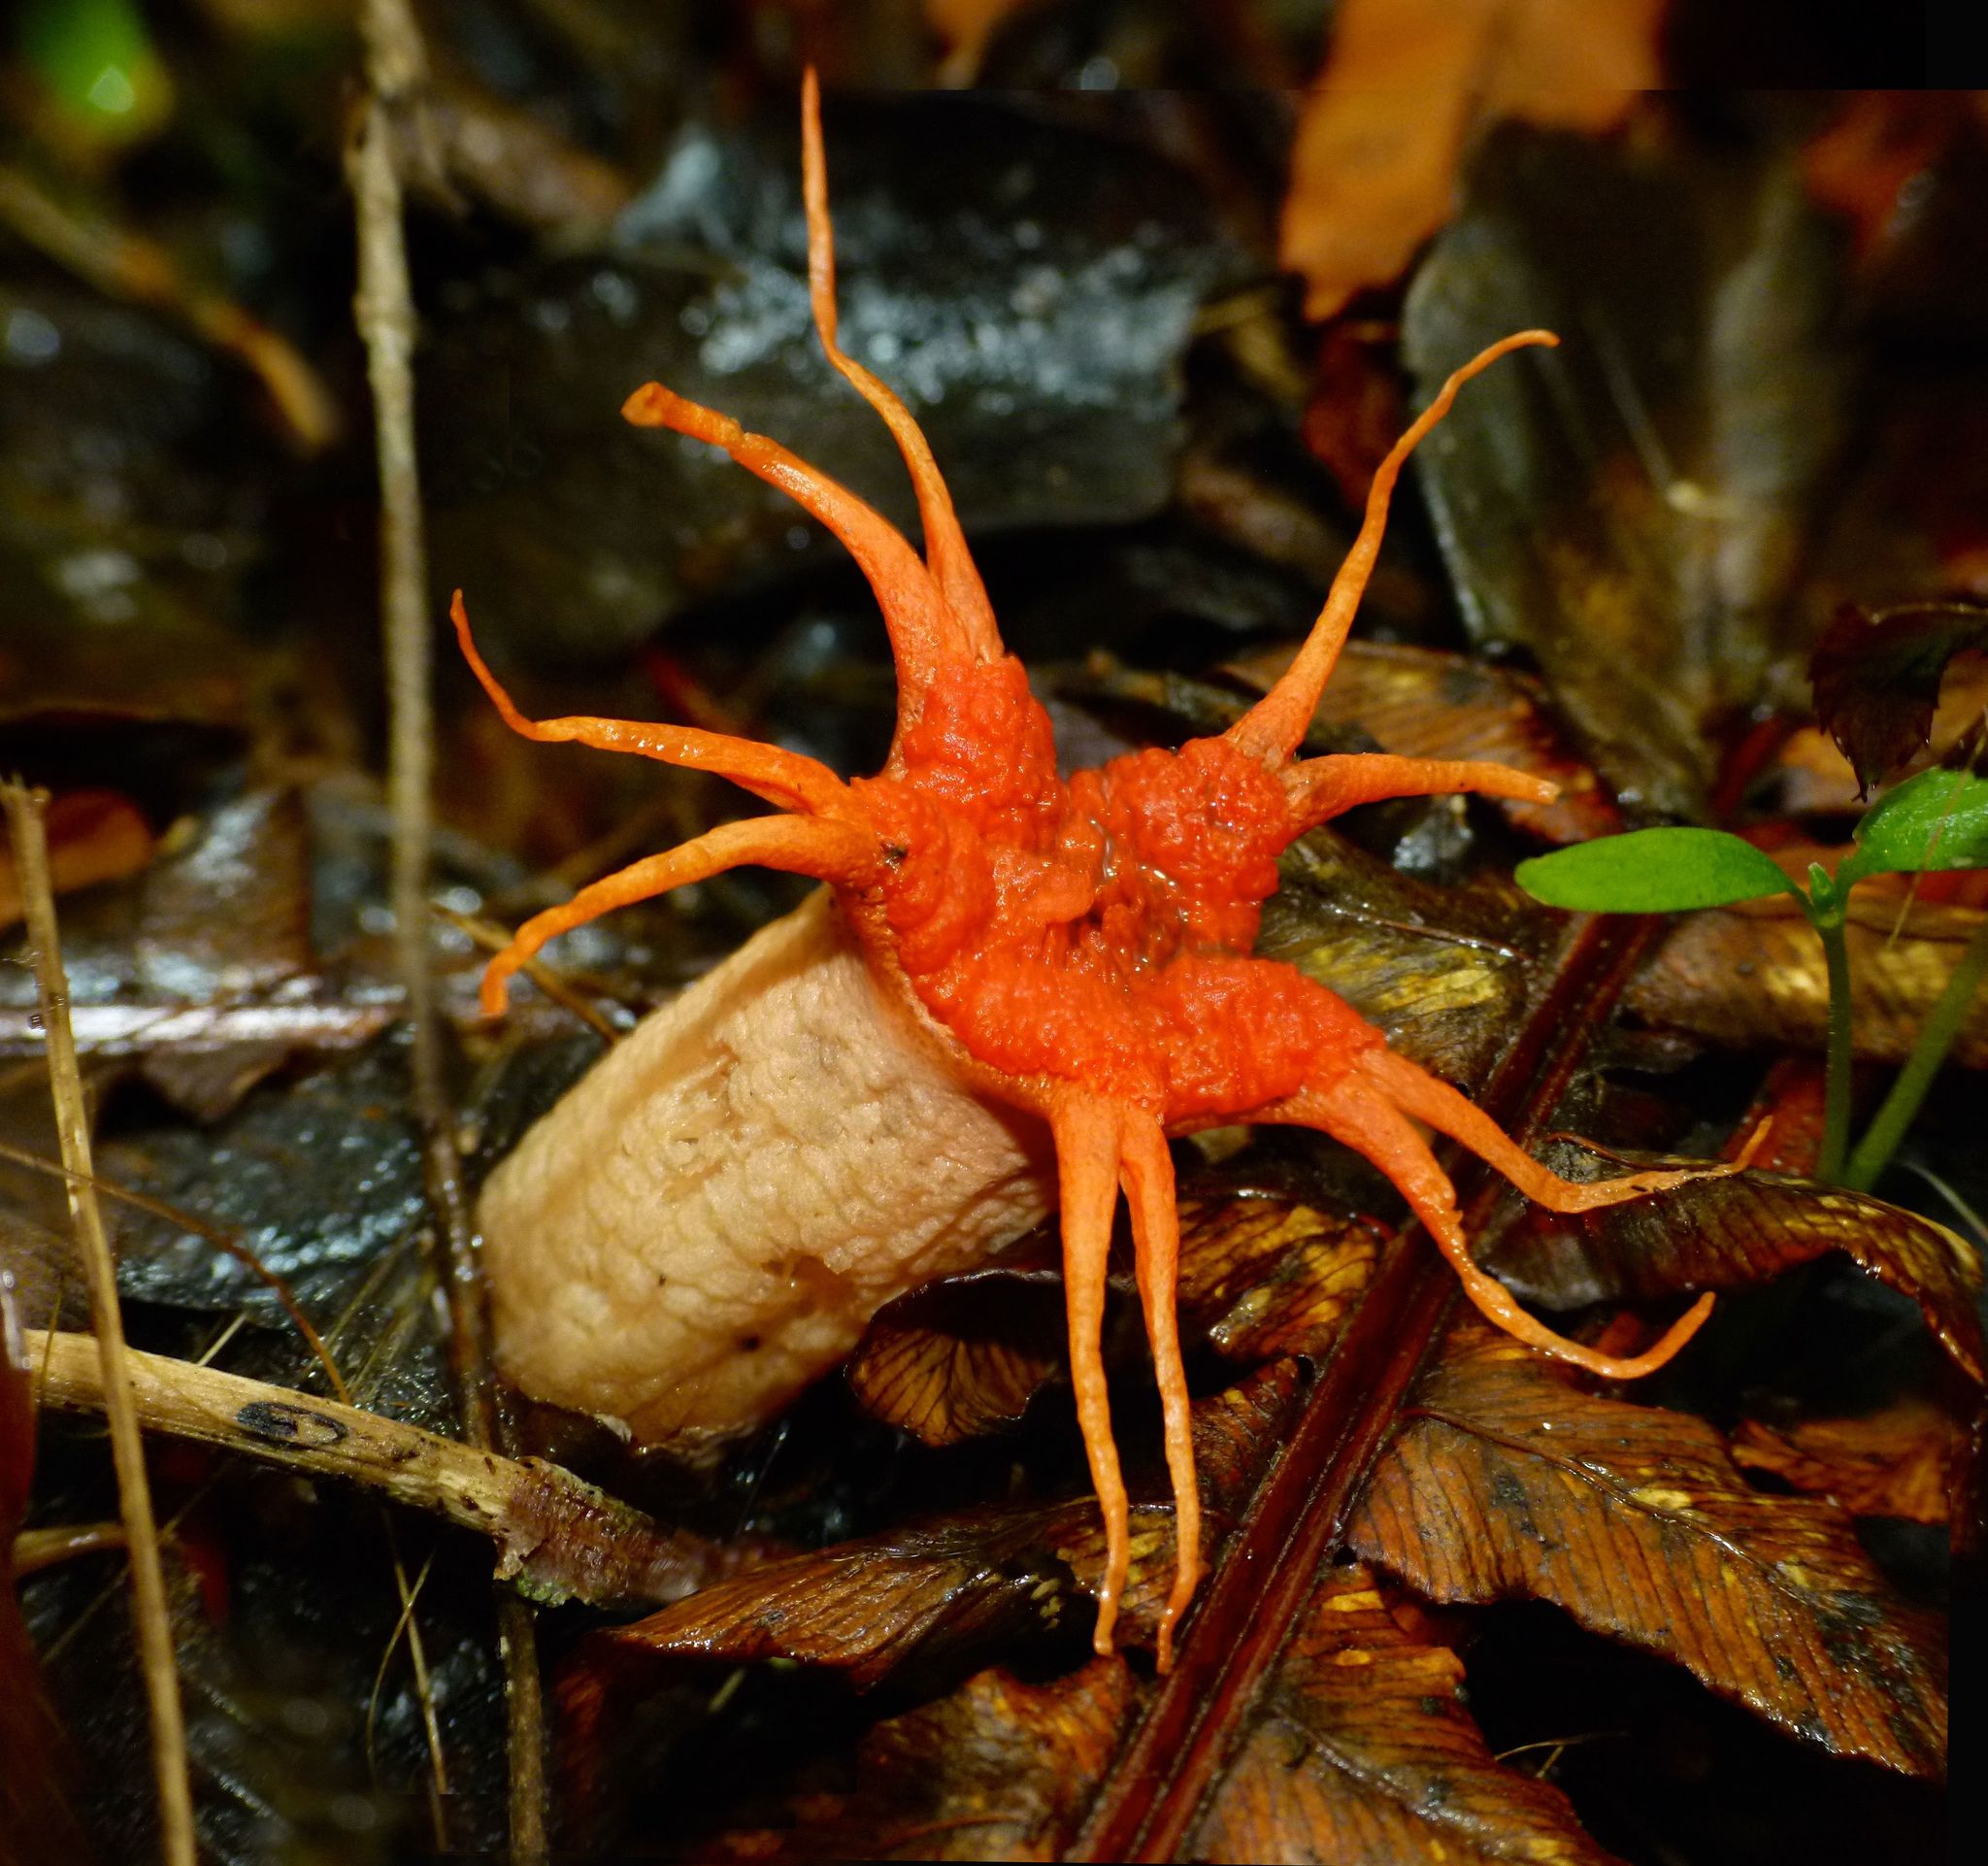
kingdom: Fungi
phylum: Basidiomycota
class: Agaricomycetes
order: Phallales
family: Phallaceae
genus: Aseroe
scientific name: Aseroe rubra
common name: Starfish fungus
